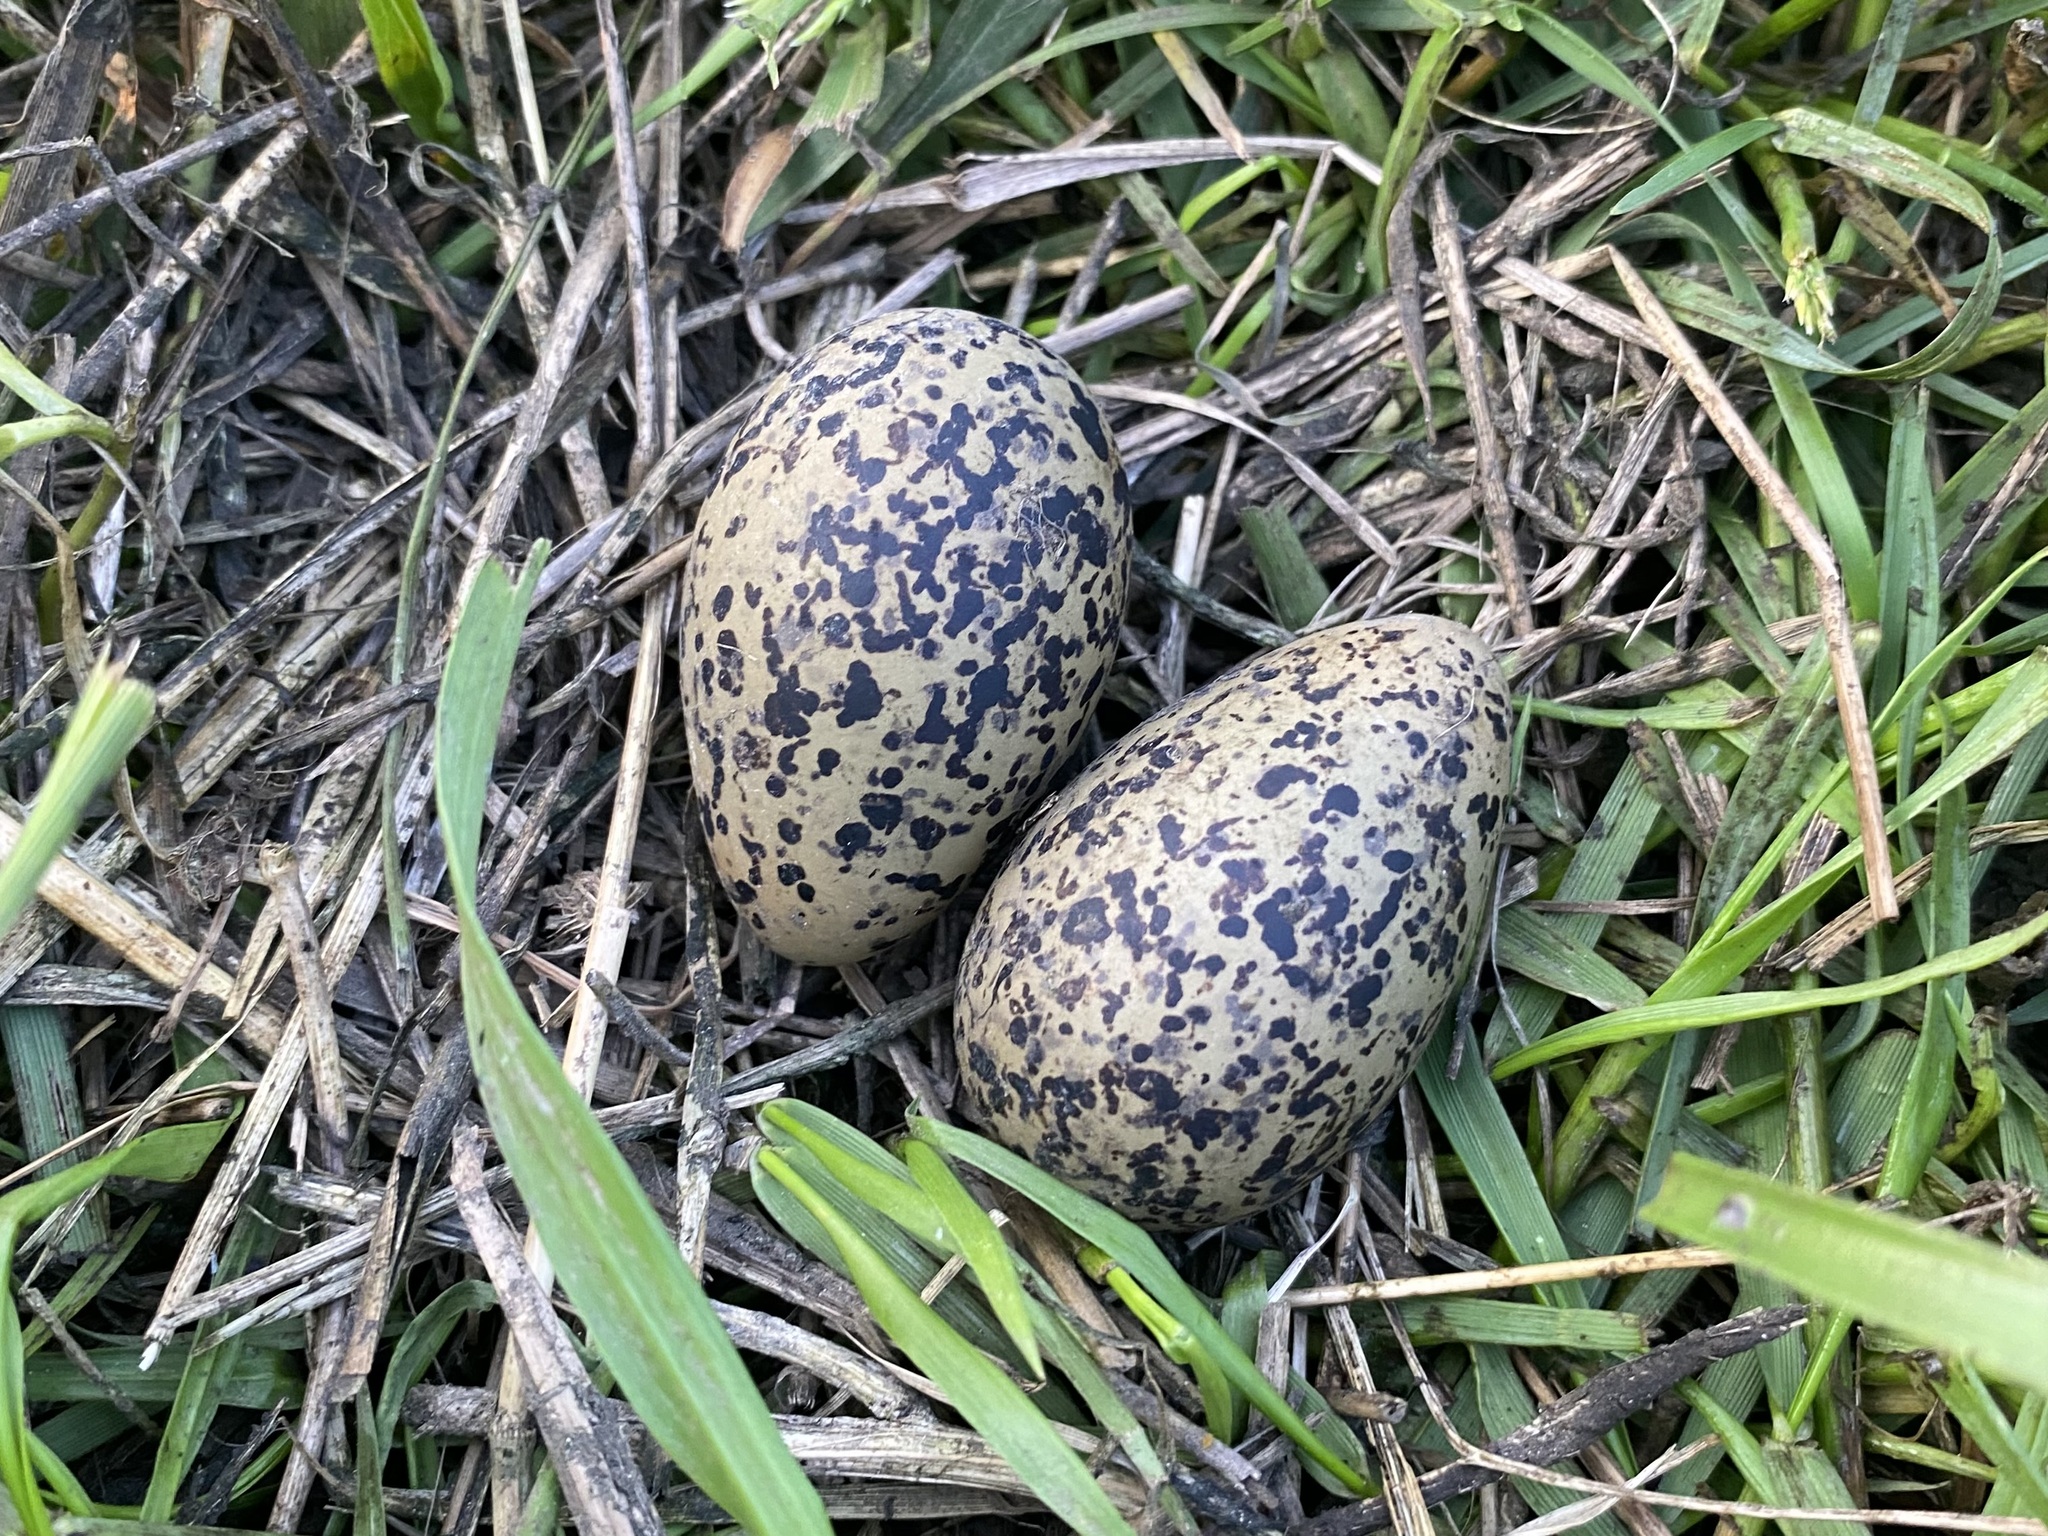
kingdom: Animalia
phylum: Chordata
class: Aves
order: Charadriiformes
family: Recurvirostridae
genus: Himantopus
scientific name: Himantopus mexicanus
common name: Black-necked stilt
